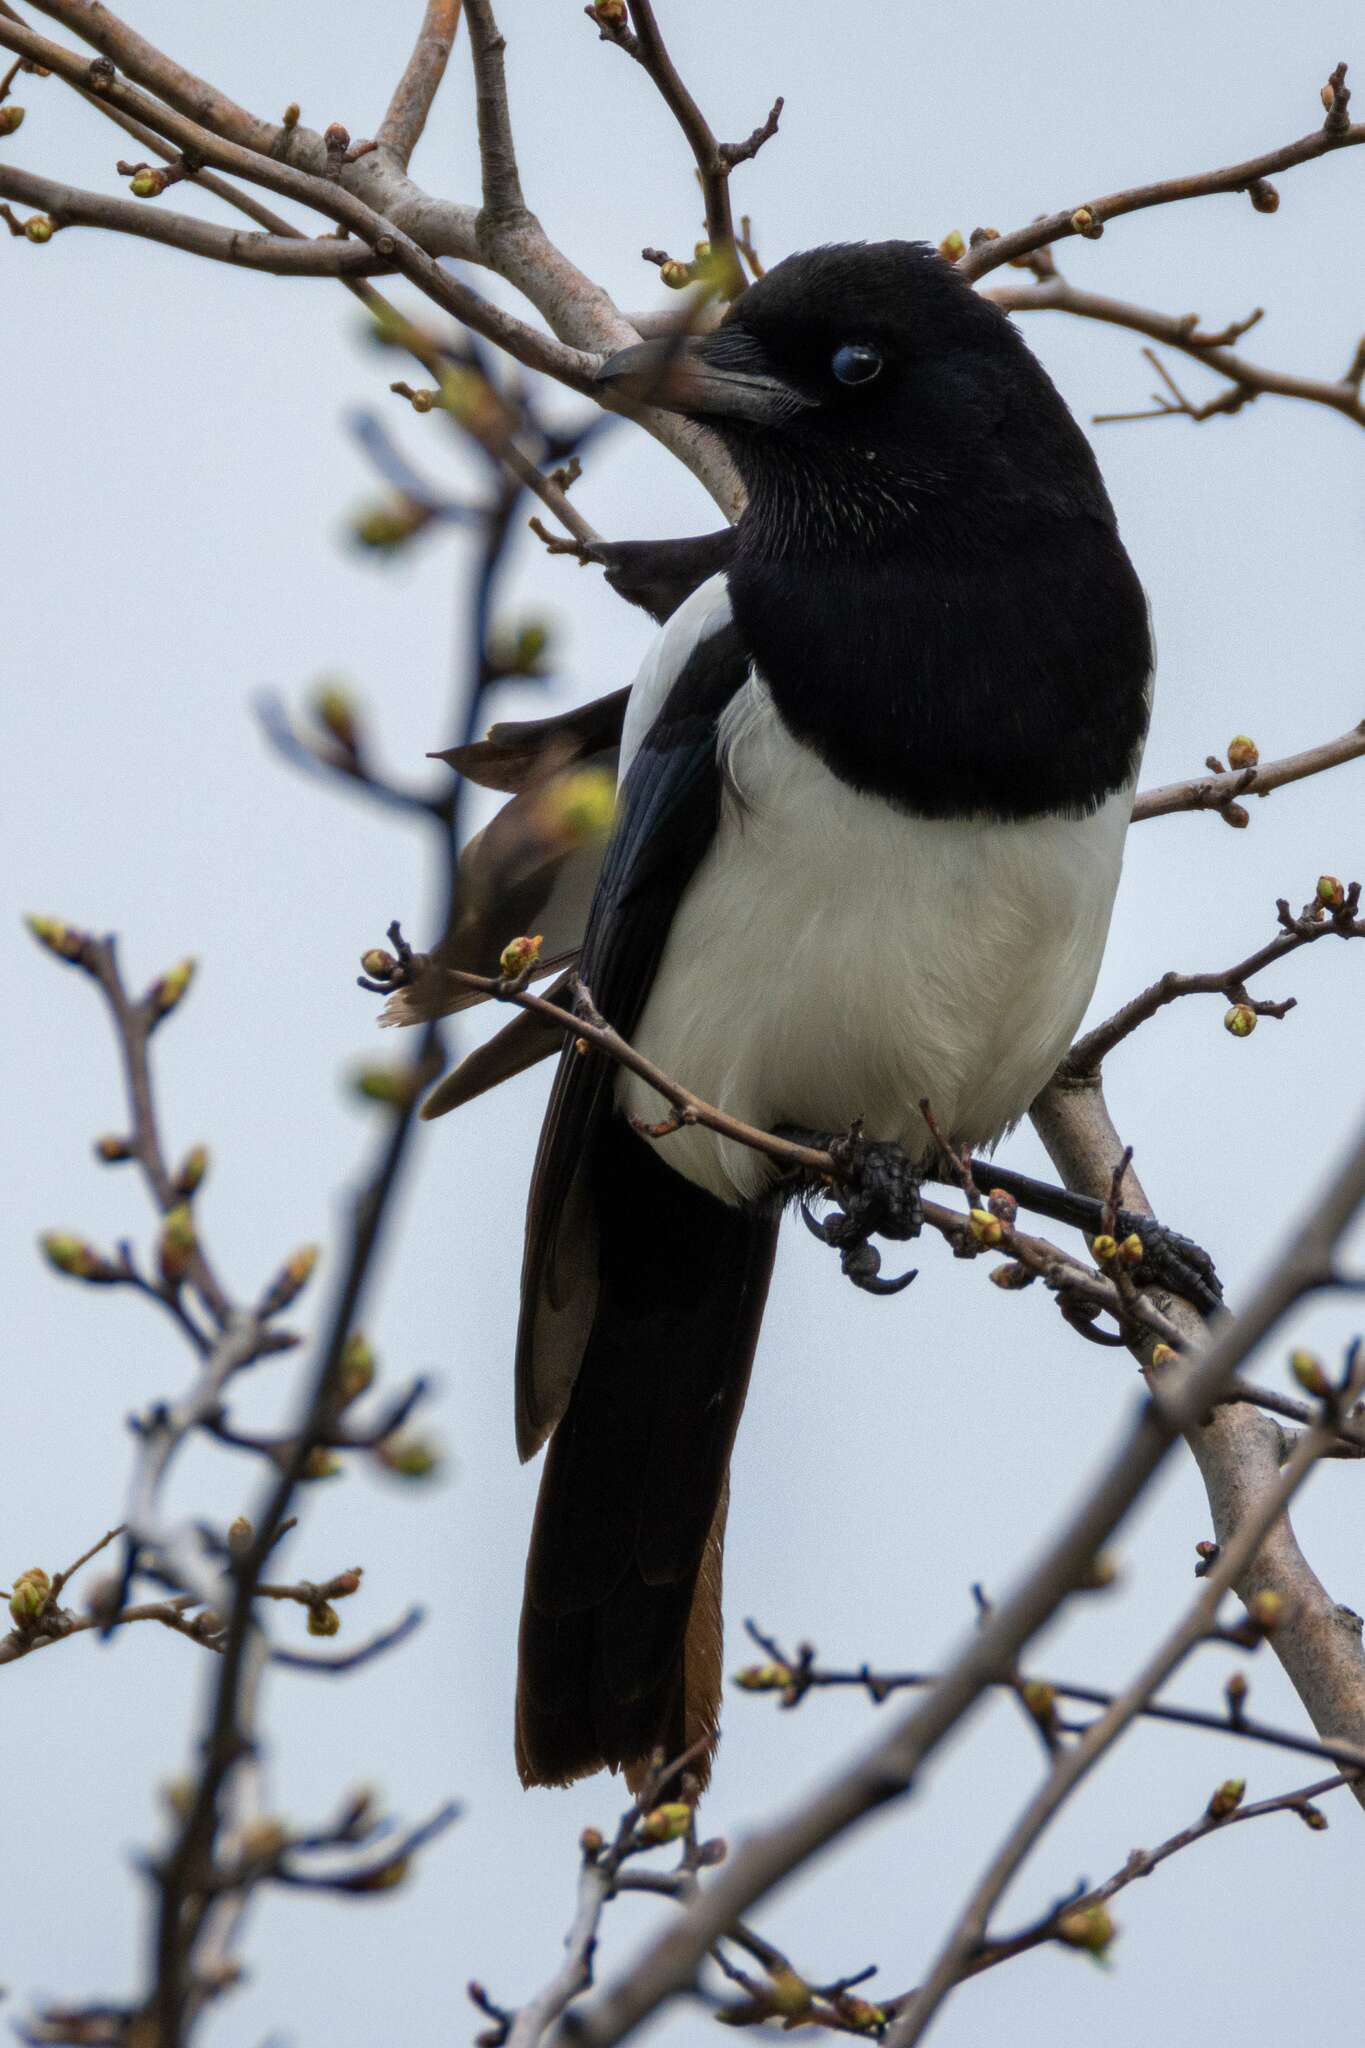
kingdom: Animalia
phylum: Chordata
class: Aves
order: Passeriformes
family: Corvidae
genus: Pica
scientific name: Pica pica
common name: Eurasian magpie
